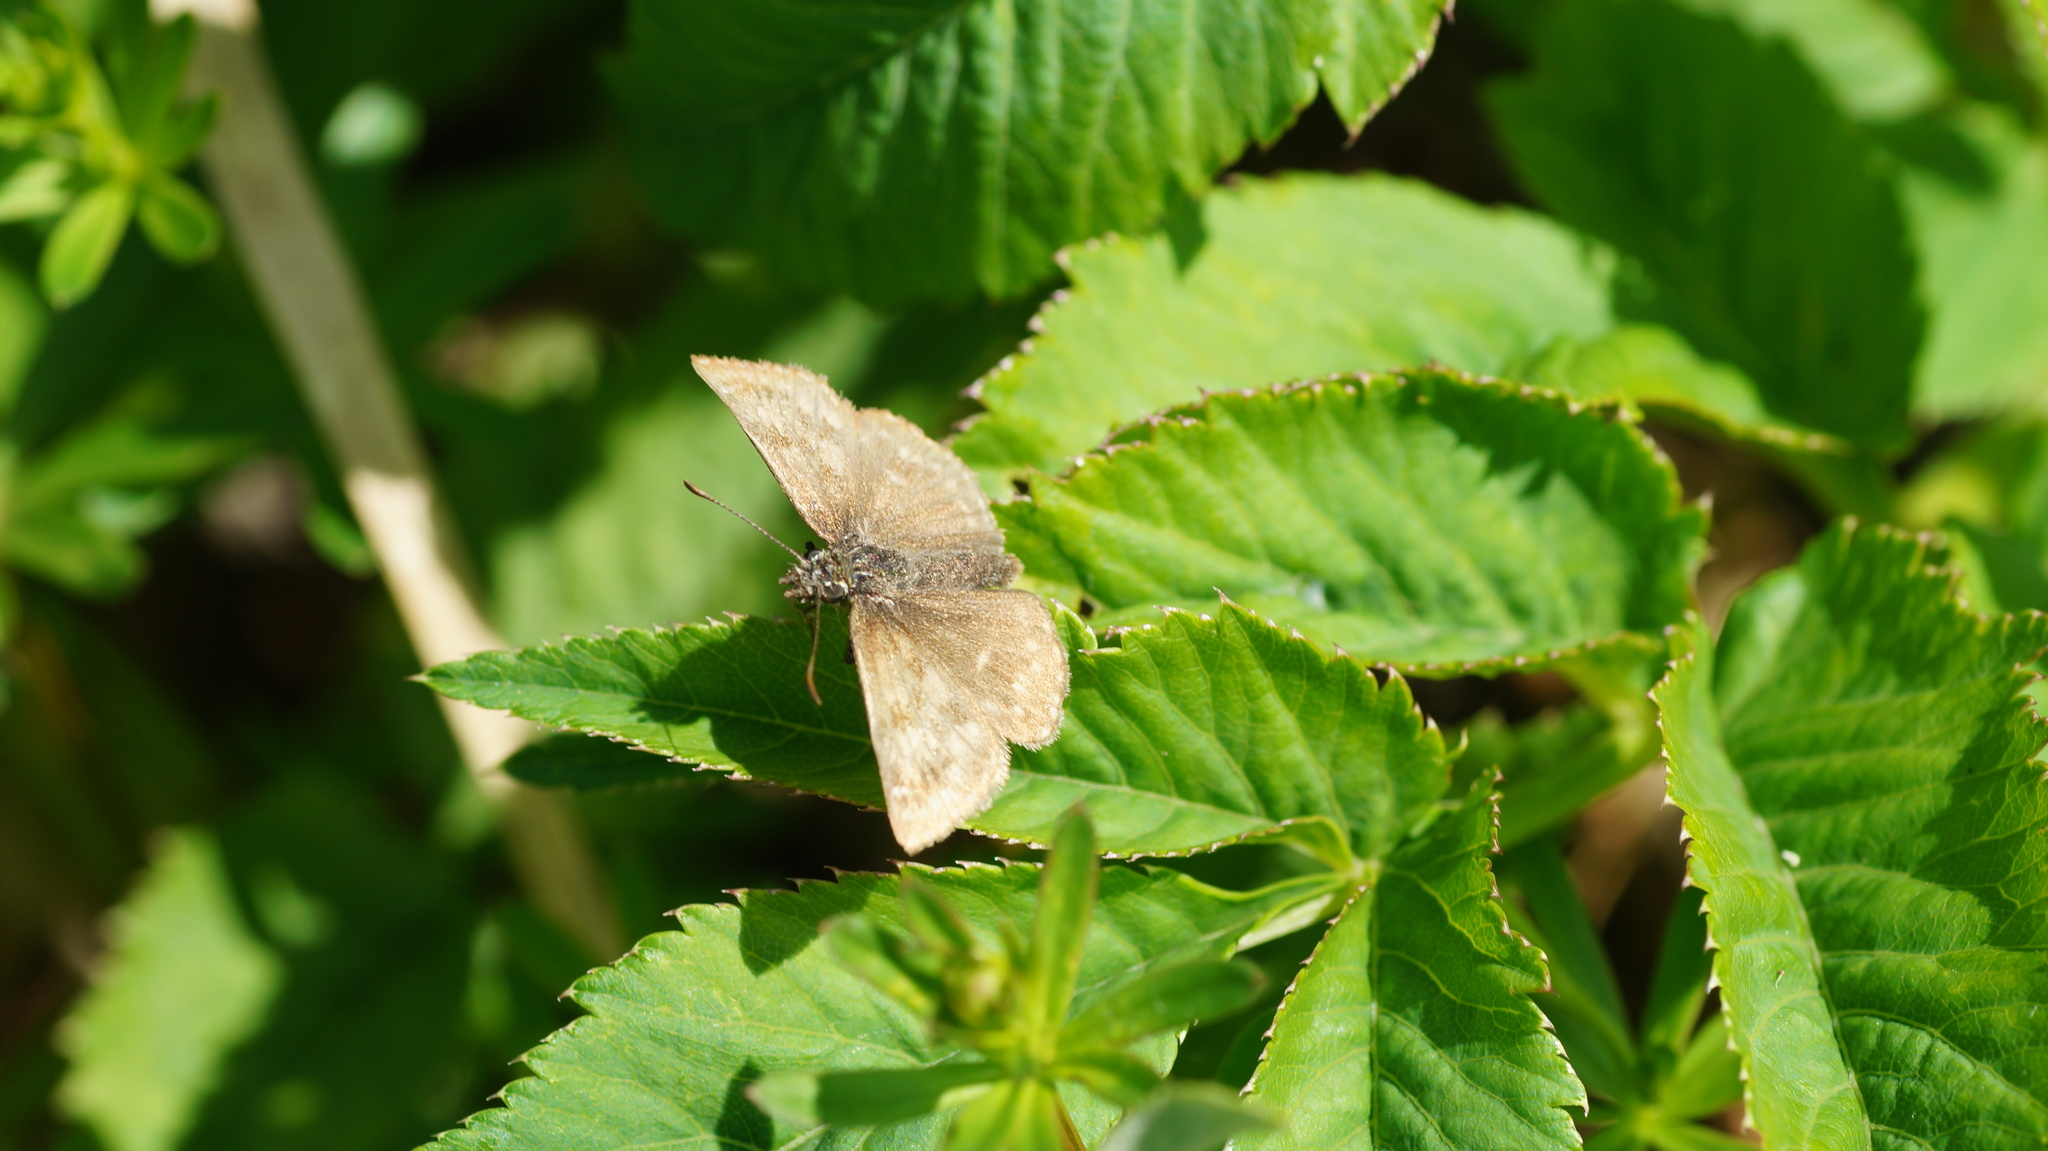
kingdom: Animalia
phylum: Arthropoda
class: Insecta
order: Lepidoptera
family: Hesperiidae
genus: Erynnis
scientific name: Erynnis tages
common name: Dingy skipper
